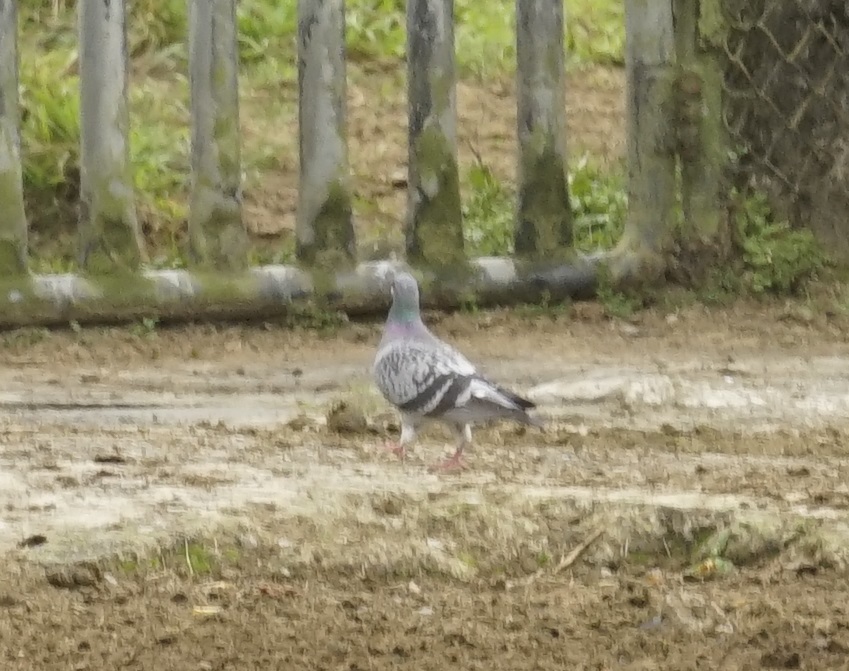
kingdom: Animalia
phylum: Chordata
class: Aves
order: Columbiformes
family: Columbidae
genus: Columba
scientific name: Columba livia
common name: Rock pigeon
